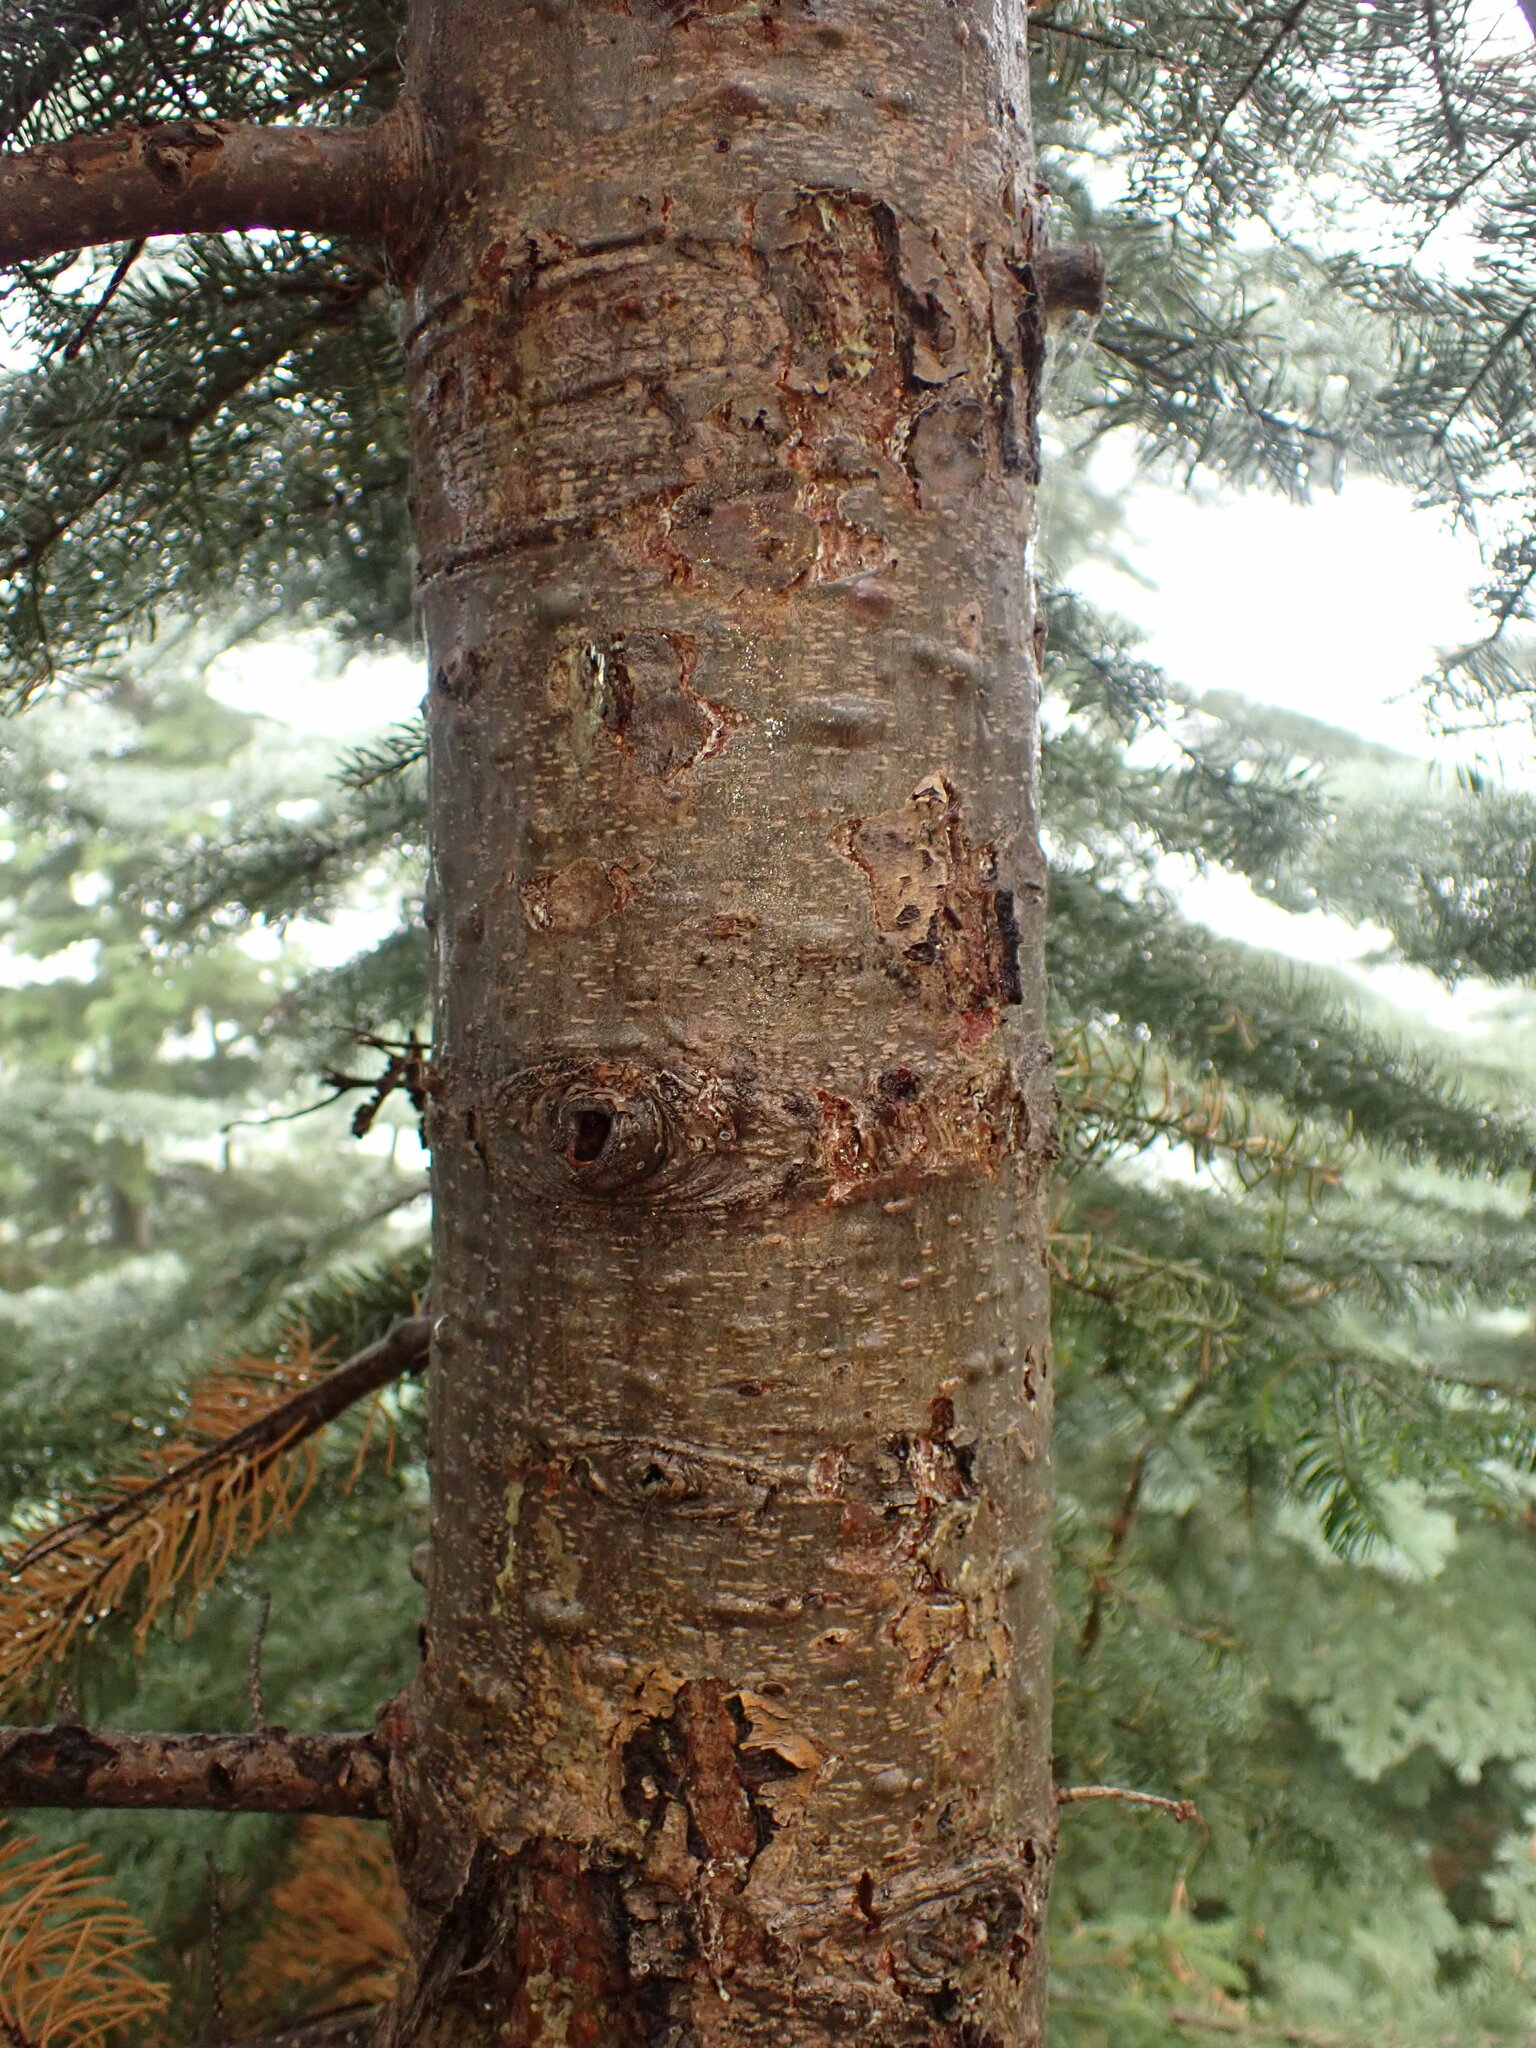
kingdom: Plantae
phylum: Tracheophyta
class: Pinopsida
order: Pinales
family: Pinaceae
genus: Abies
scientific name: Abies magnifica bis
